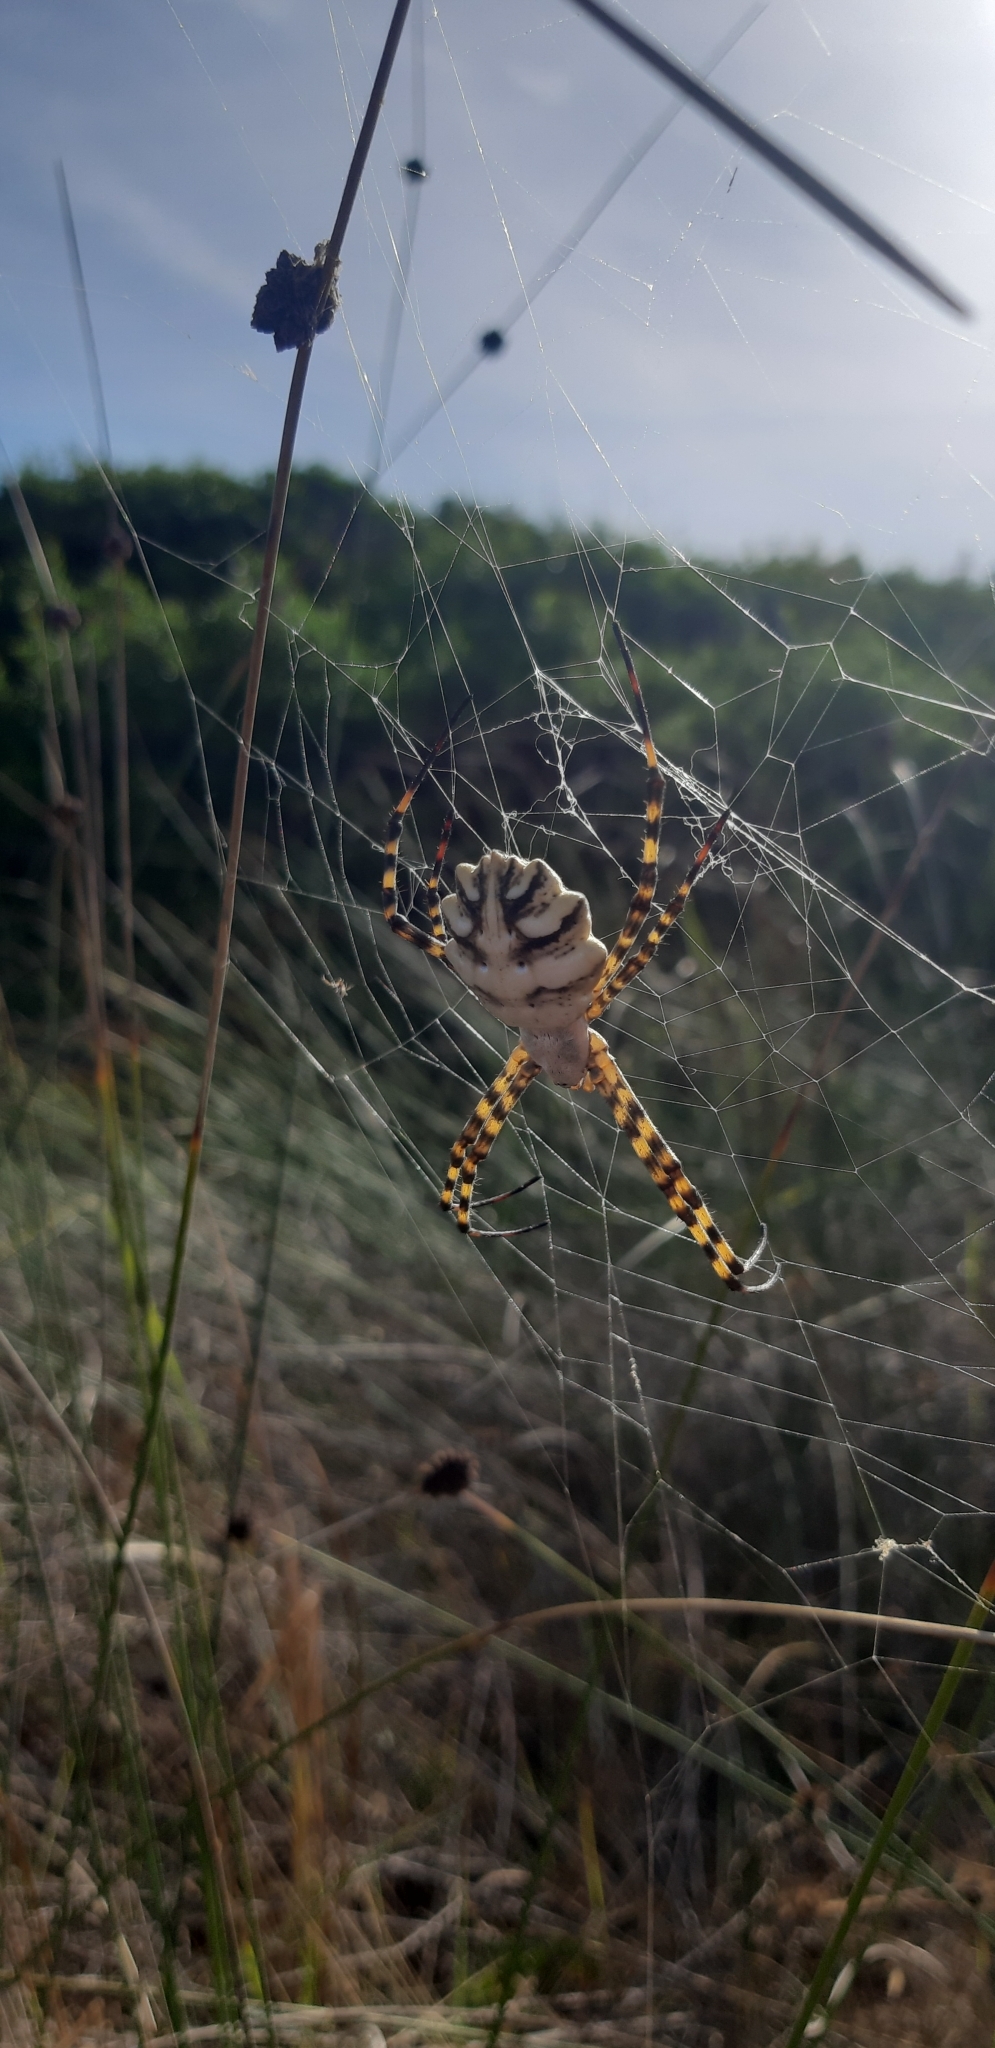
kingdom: Animalia
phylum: Arthropoda
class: Arachnida
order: Araneae
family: Araneidae
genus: Argiope
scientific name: Argiope lobata
